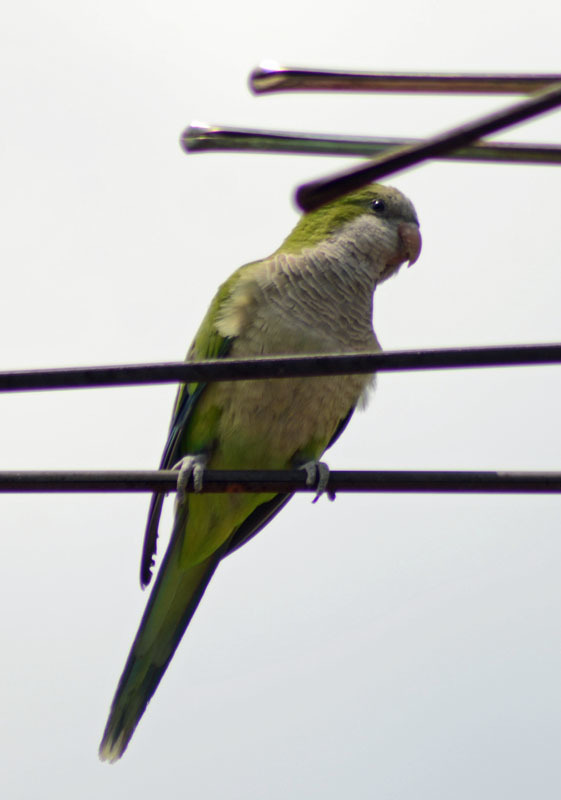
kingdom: Animalia
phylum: Chordata
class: Aves
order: Psittaciformes
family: Psittacidae
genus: Myiopsitta
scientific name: Myiopsitta monachus
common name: Monk parakeet
